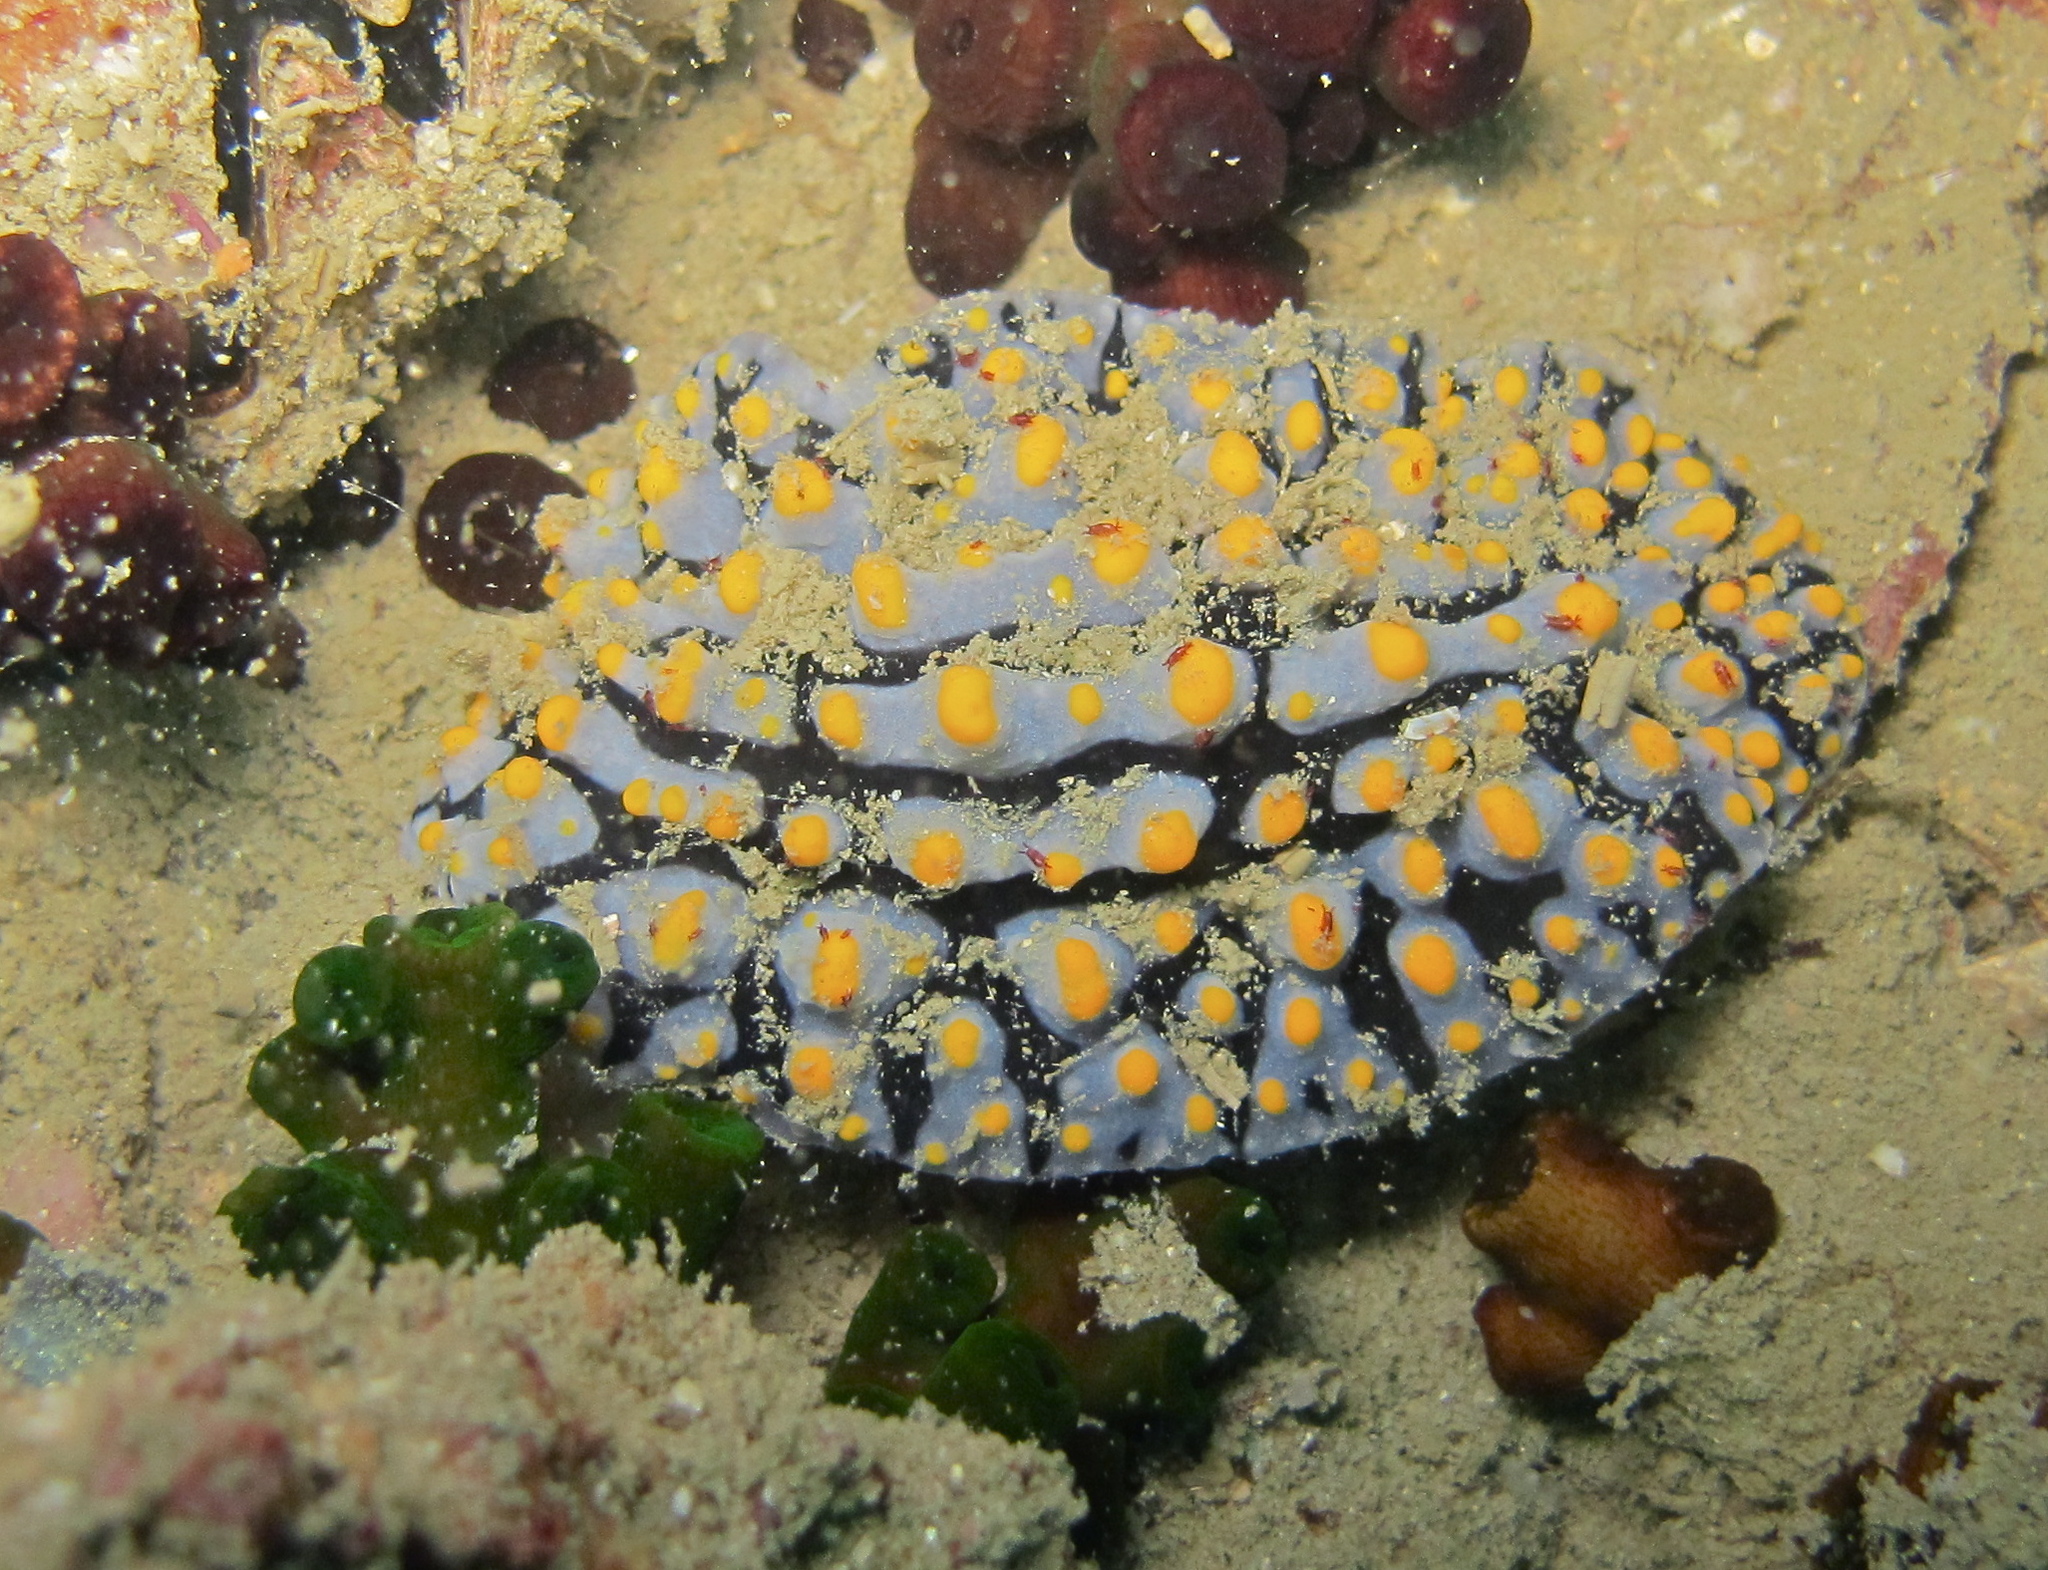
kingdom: Animalia
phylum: Mollusca
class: Gastropoda
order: Nudibranchia
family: Phyllidiidae
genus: Phyllidia
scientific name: Phyllidia varicosa
